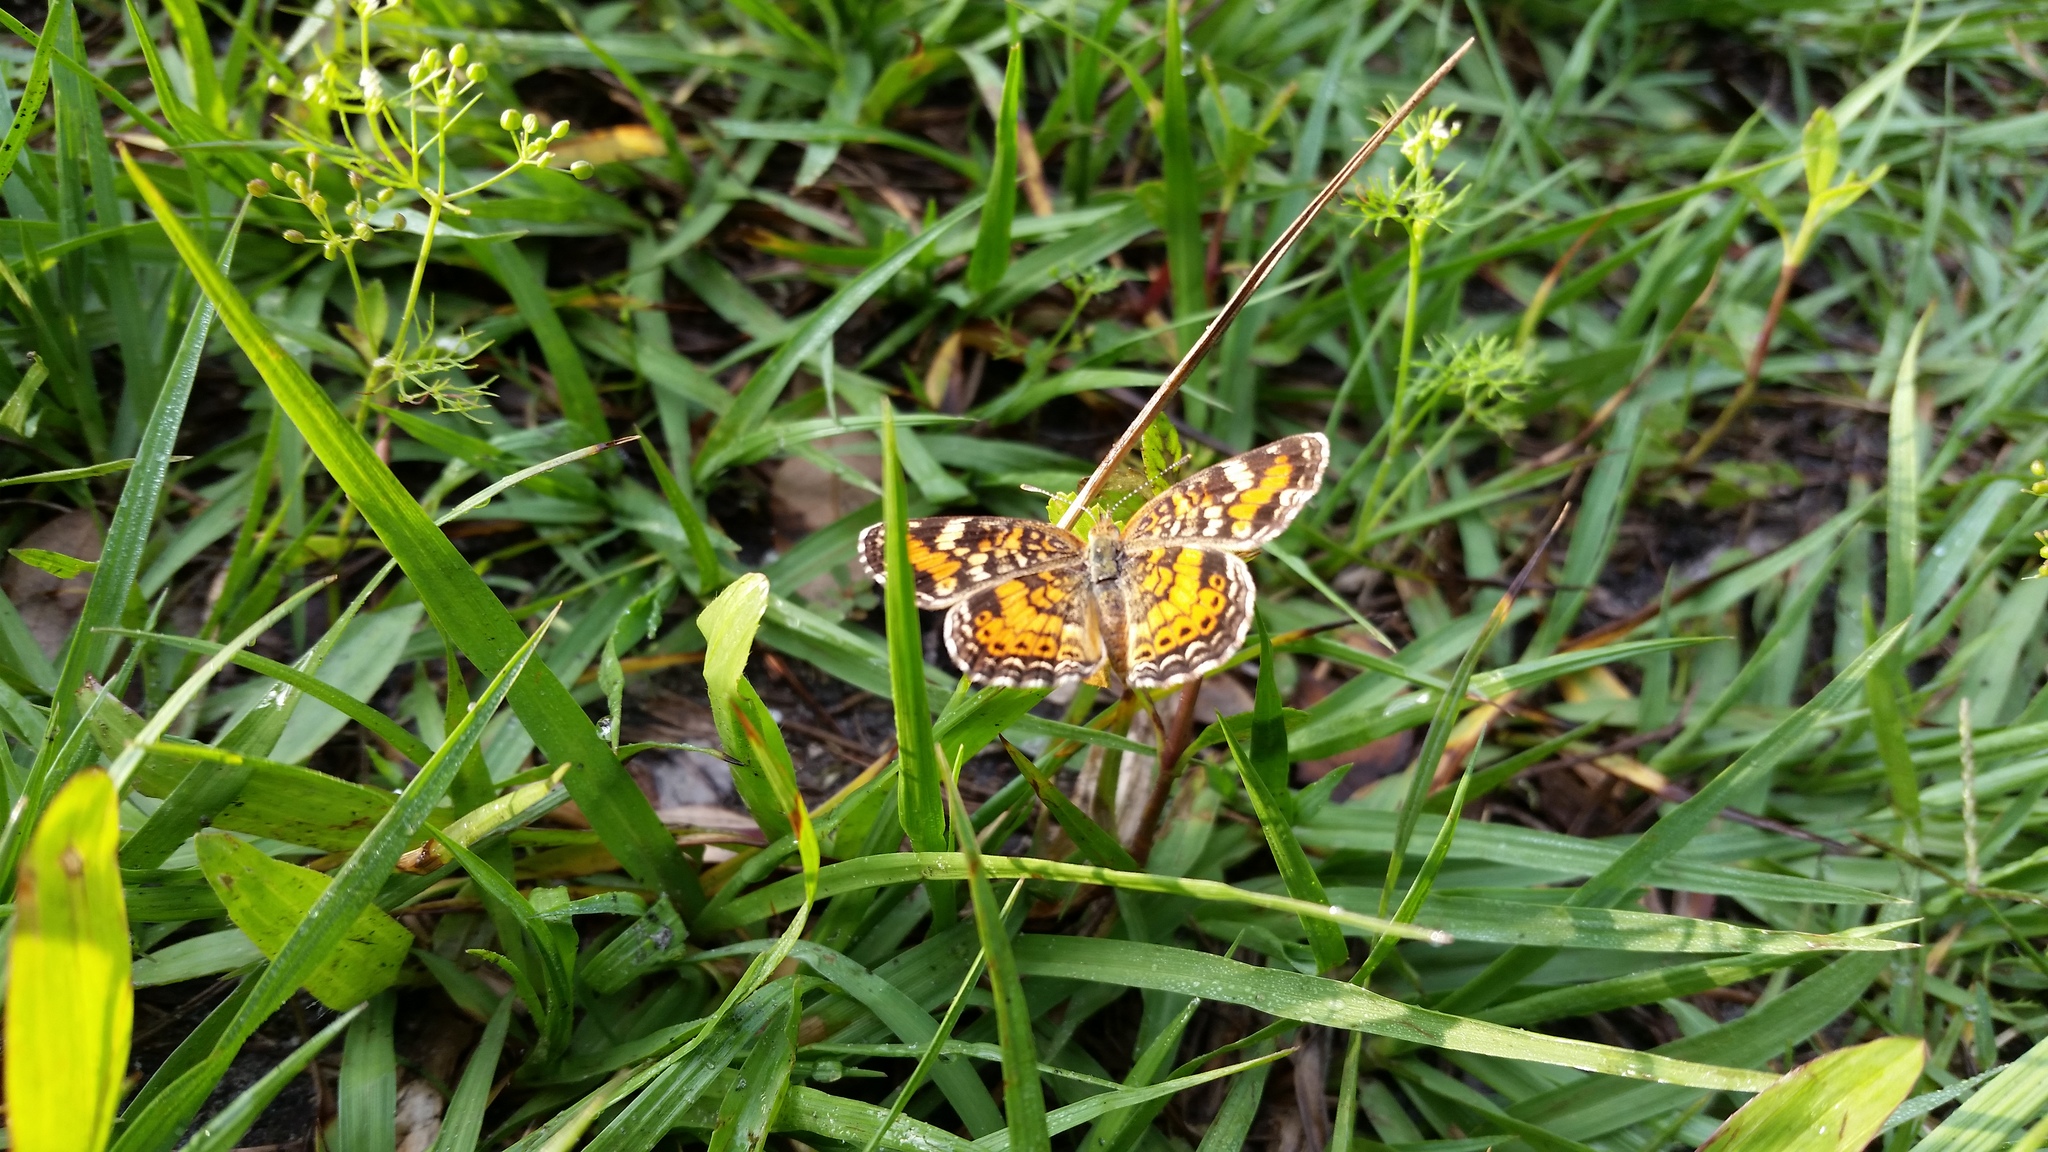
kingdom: Animalia
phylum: Arthropoda
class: Insecta
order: Lepidoptera
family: Nymphalidae
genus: Phyciodes
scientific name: Phyciodes phaon
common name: Phaon crescent
